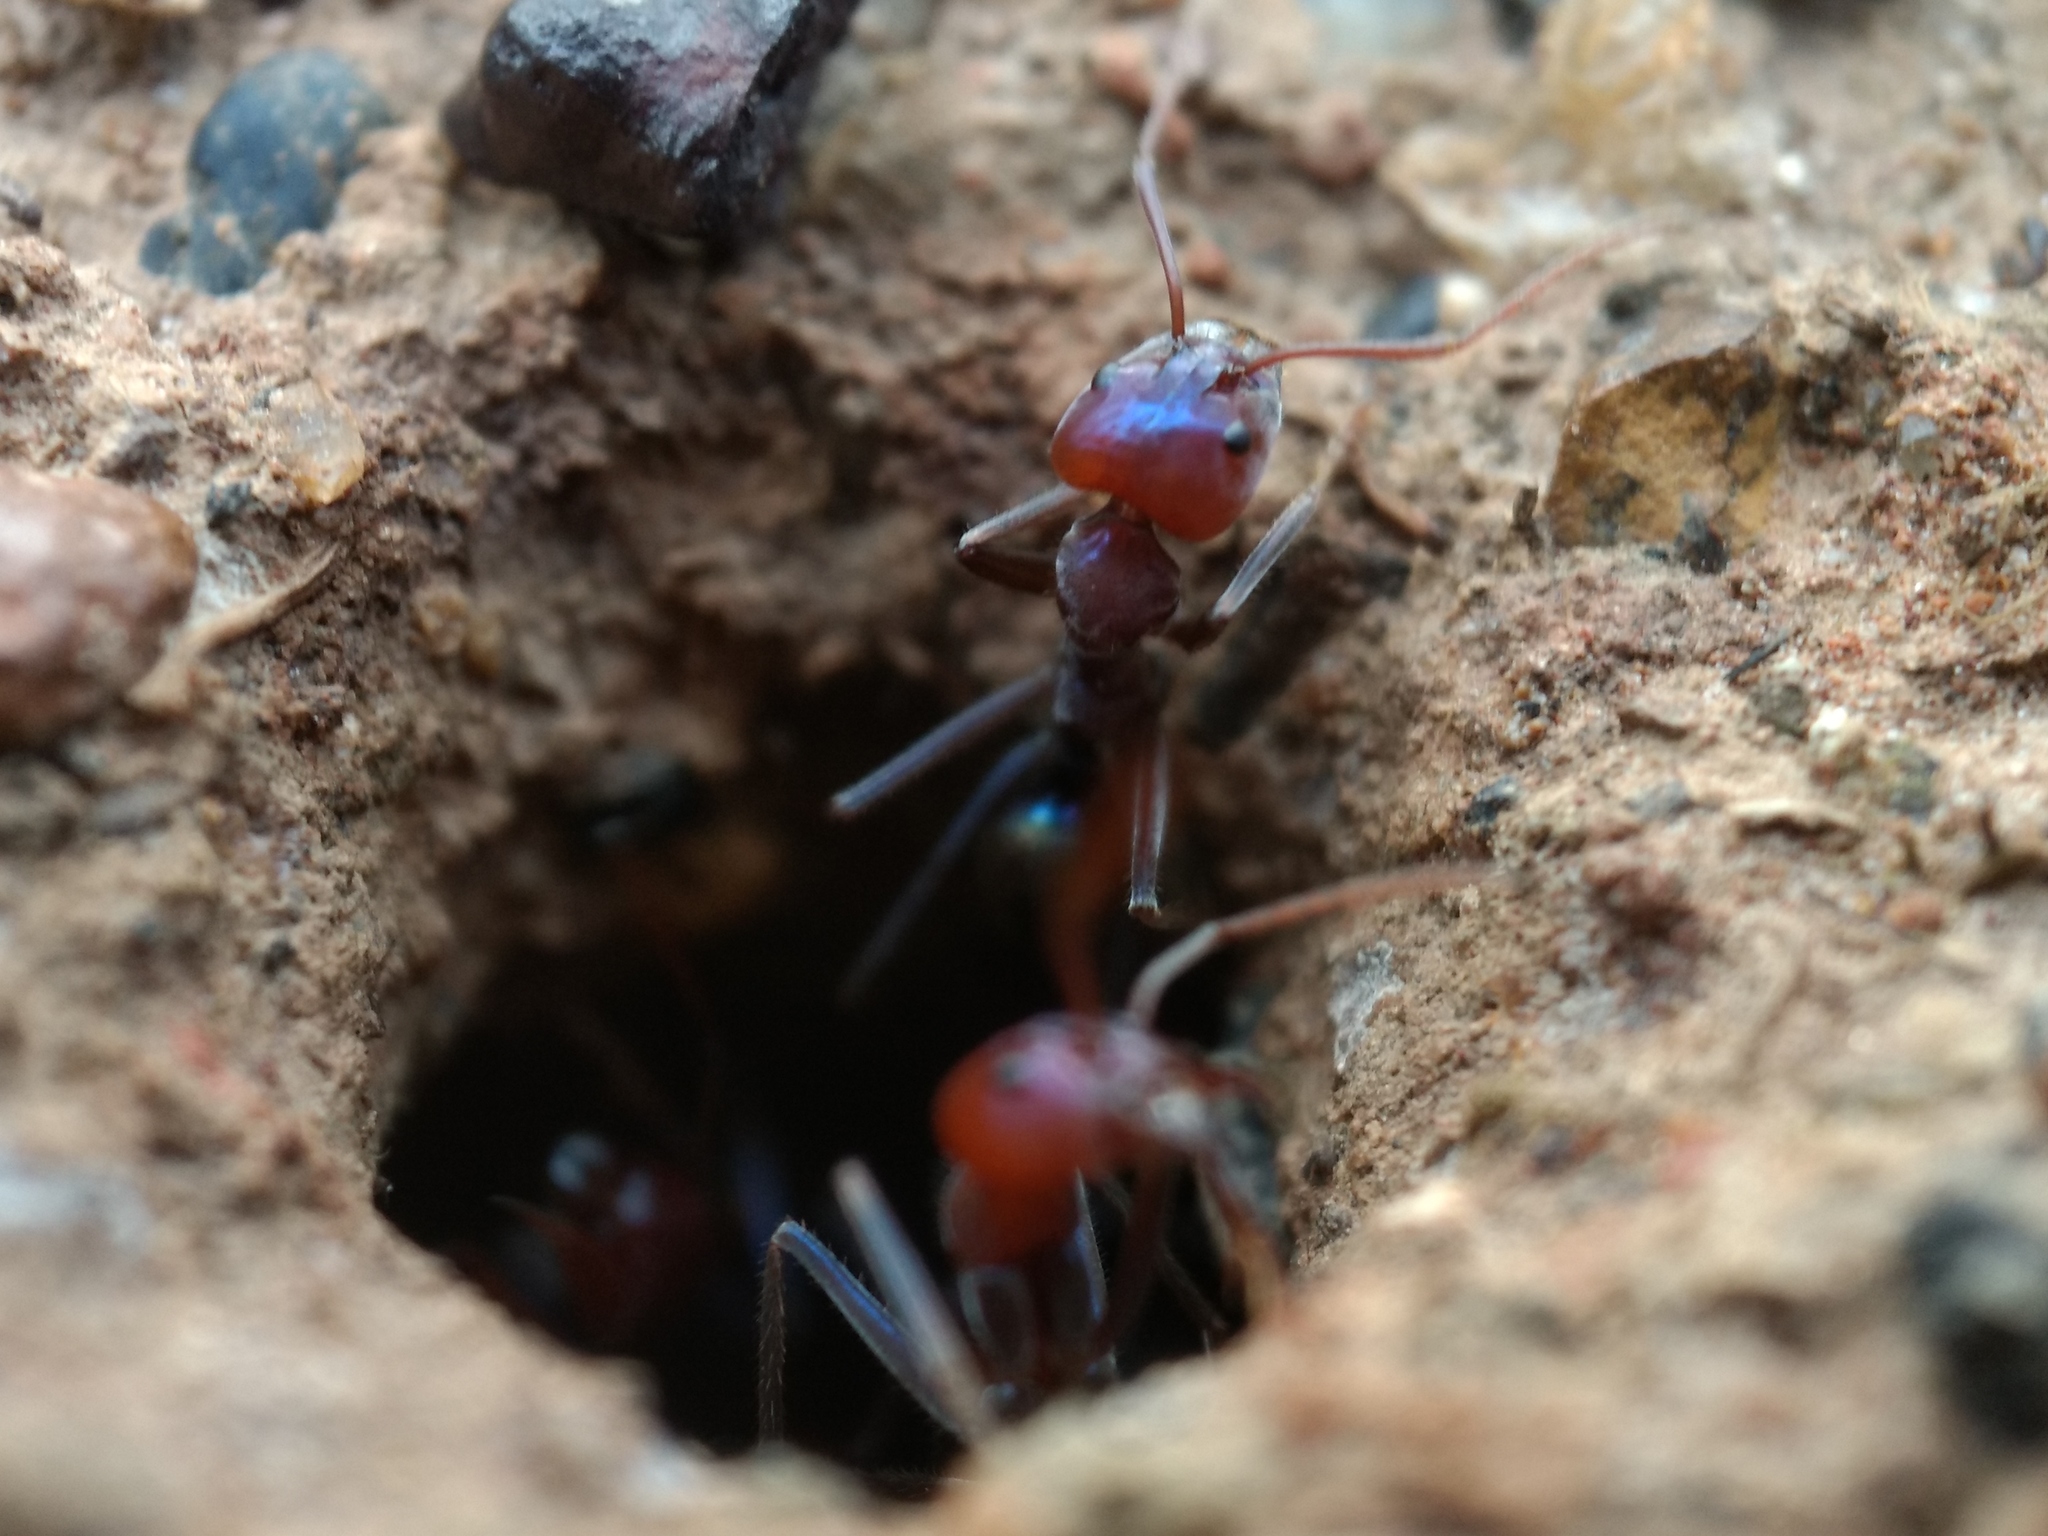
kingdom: Animalia
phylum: Arthropoda
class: Insecta
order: Hymenoptera
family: Formicidae
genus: Iridomyrmex
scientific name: Iridomyrmex purpureus
